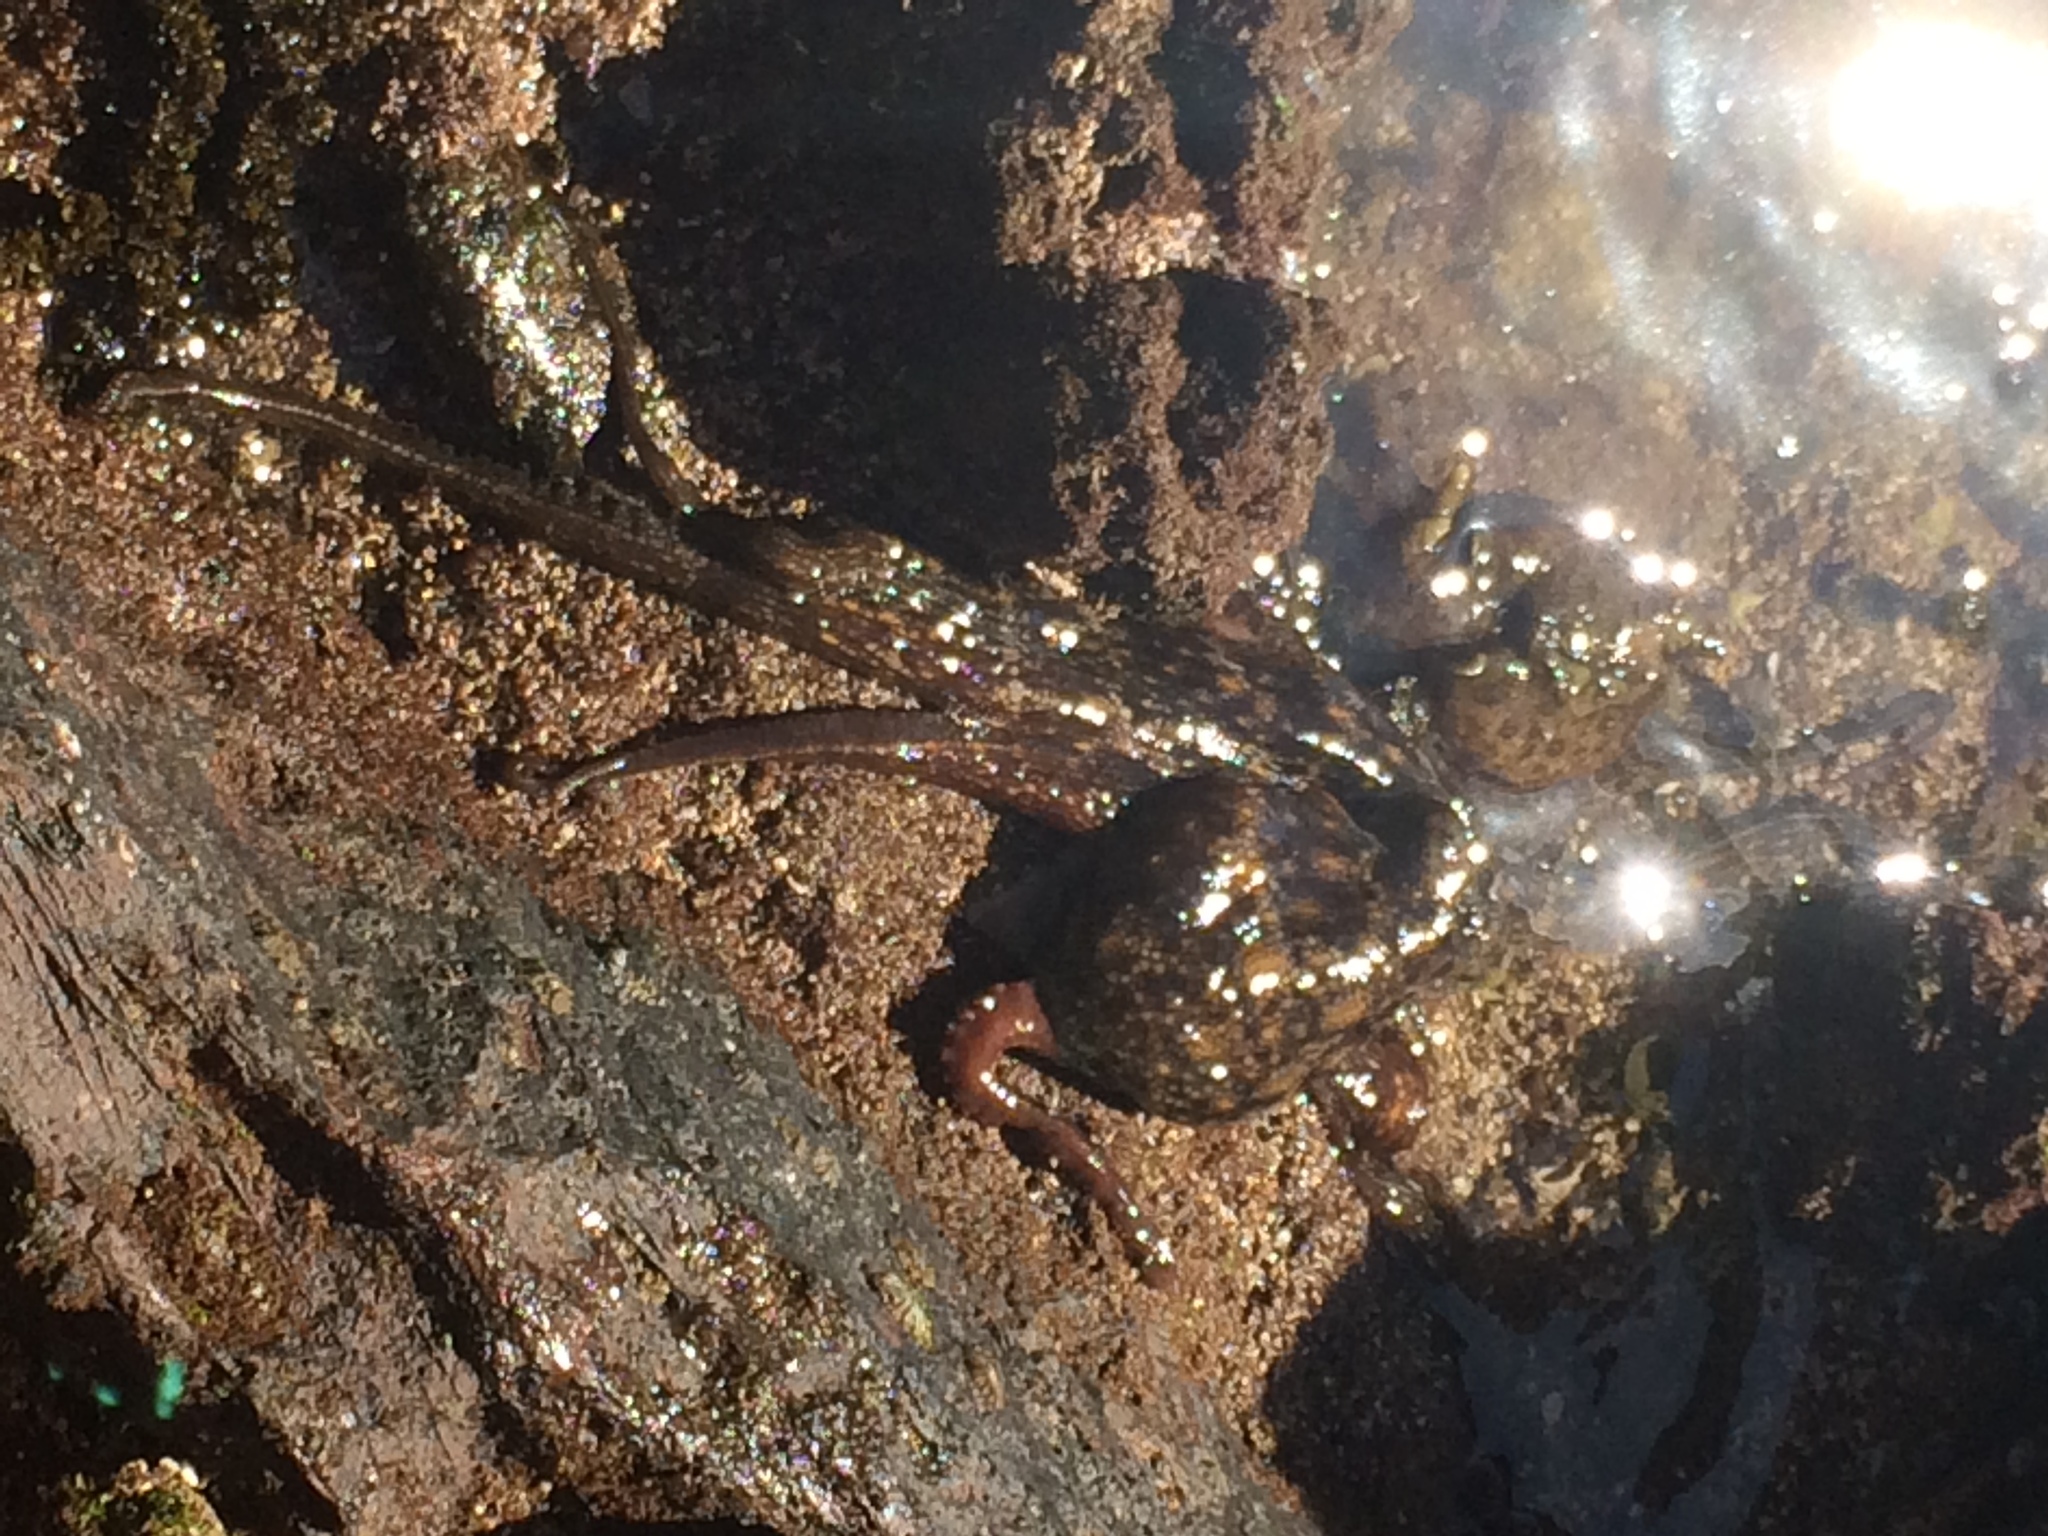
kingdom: Animalia
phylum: Mollusca
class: Cephalopoda
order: Octopoda
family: Octopodidae
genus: Octopus
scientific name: Octopus tetricus
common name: Sydney octopus
